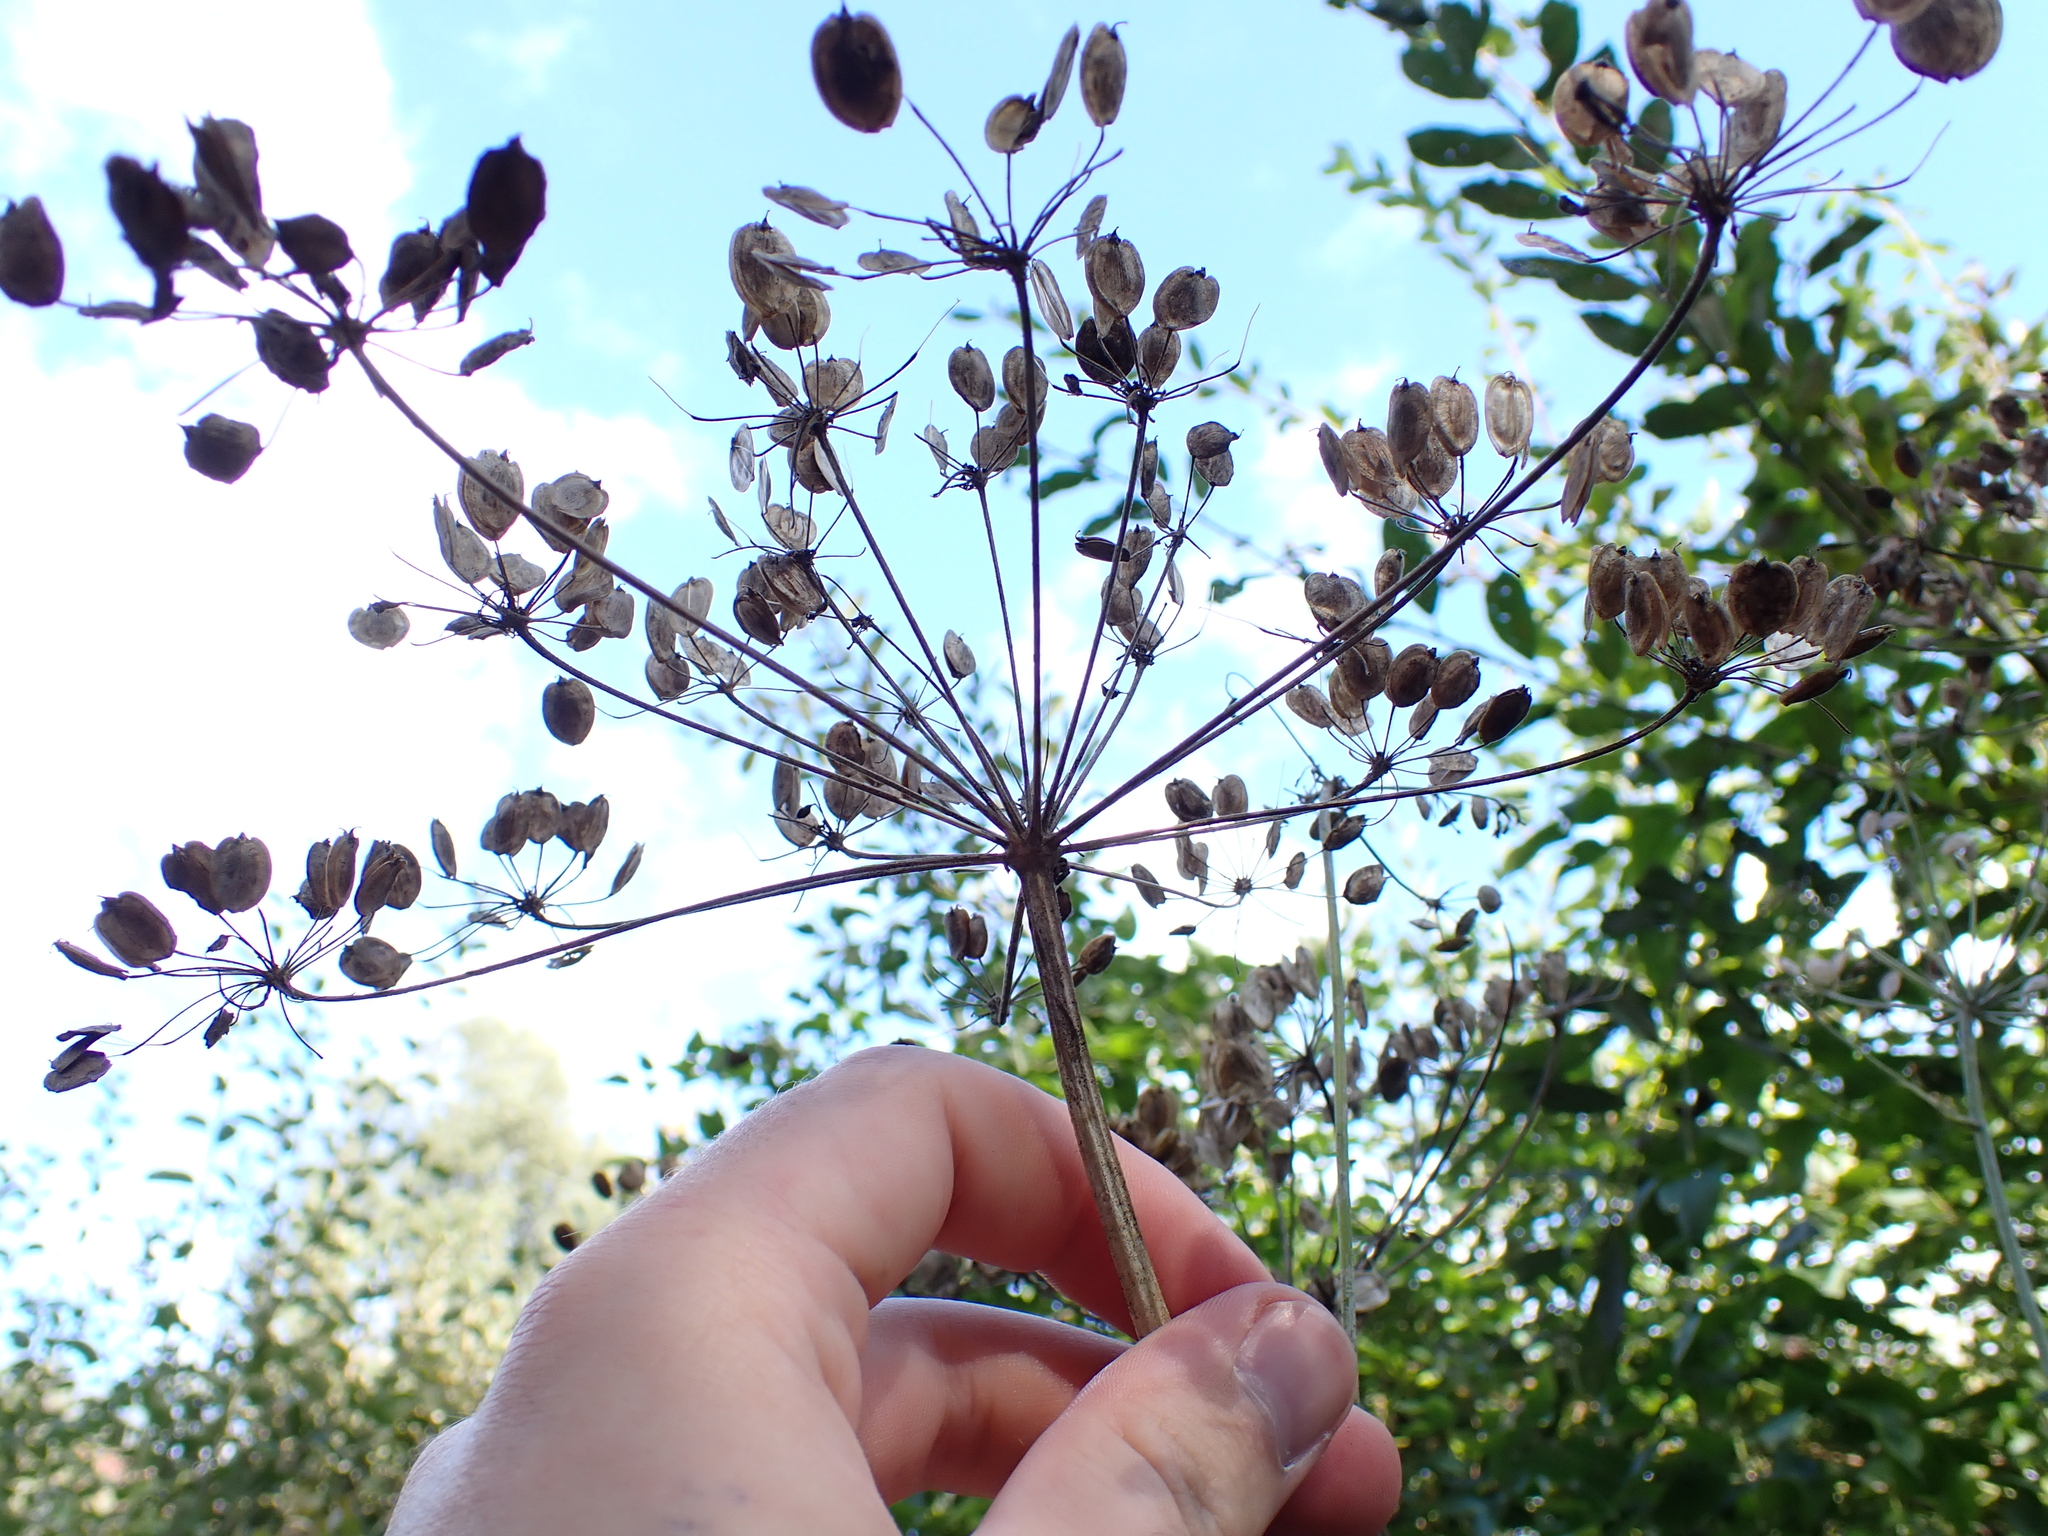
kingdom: Plantae
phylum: Tracheophyta
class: Magnoliopsida
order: Apiales
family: Apiaceae
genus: Heracleum
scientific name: Heracleum sphondylium
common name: Hogweed
